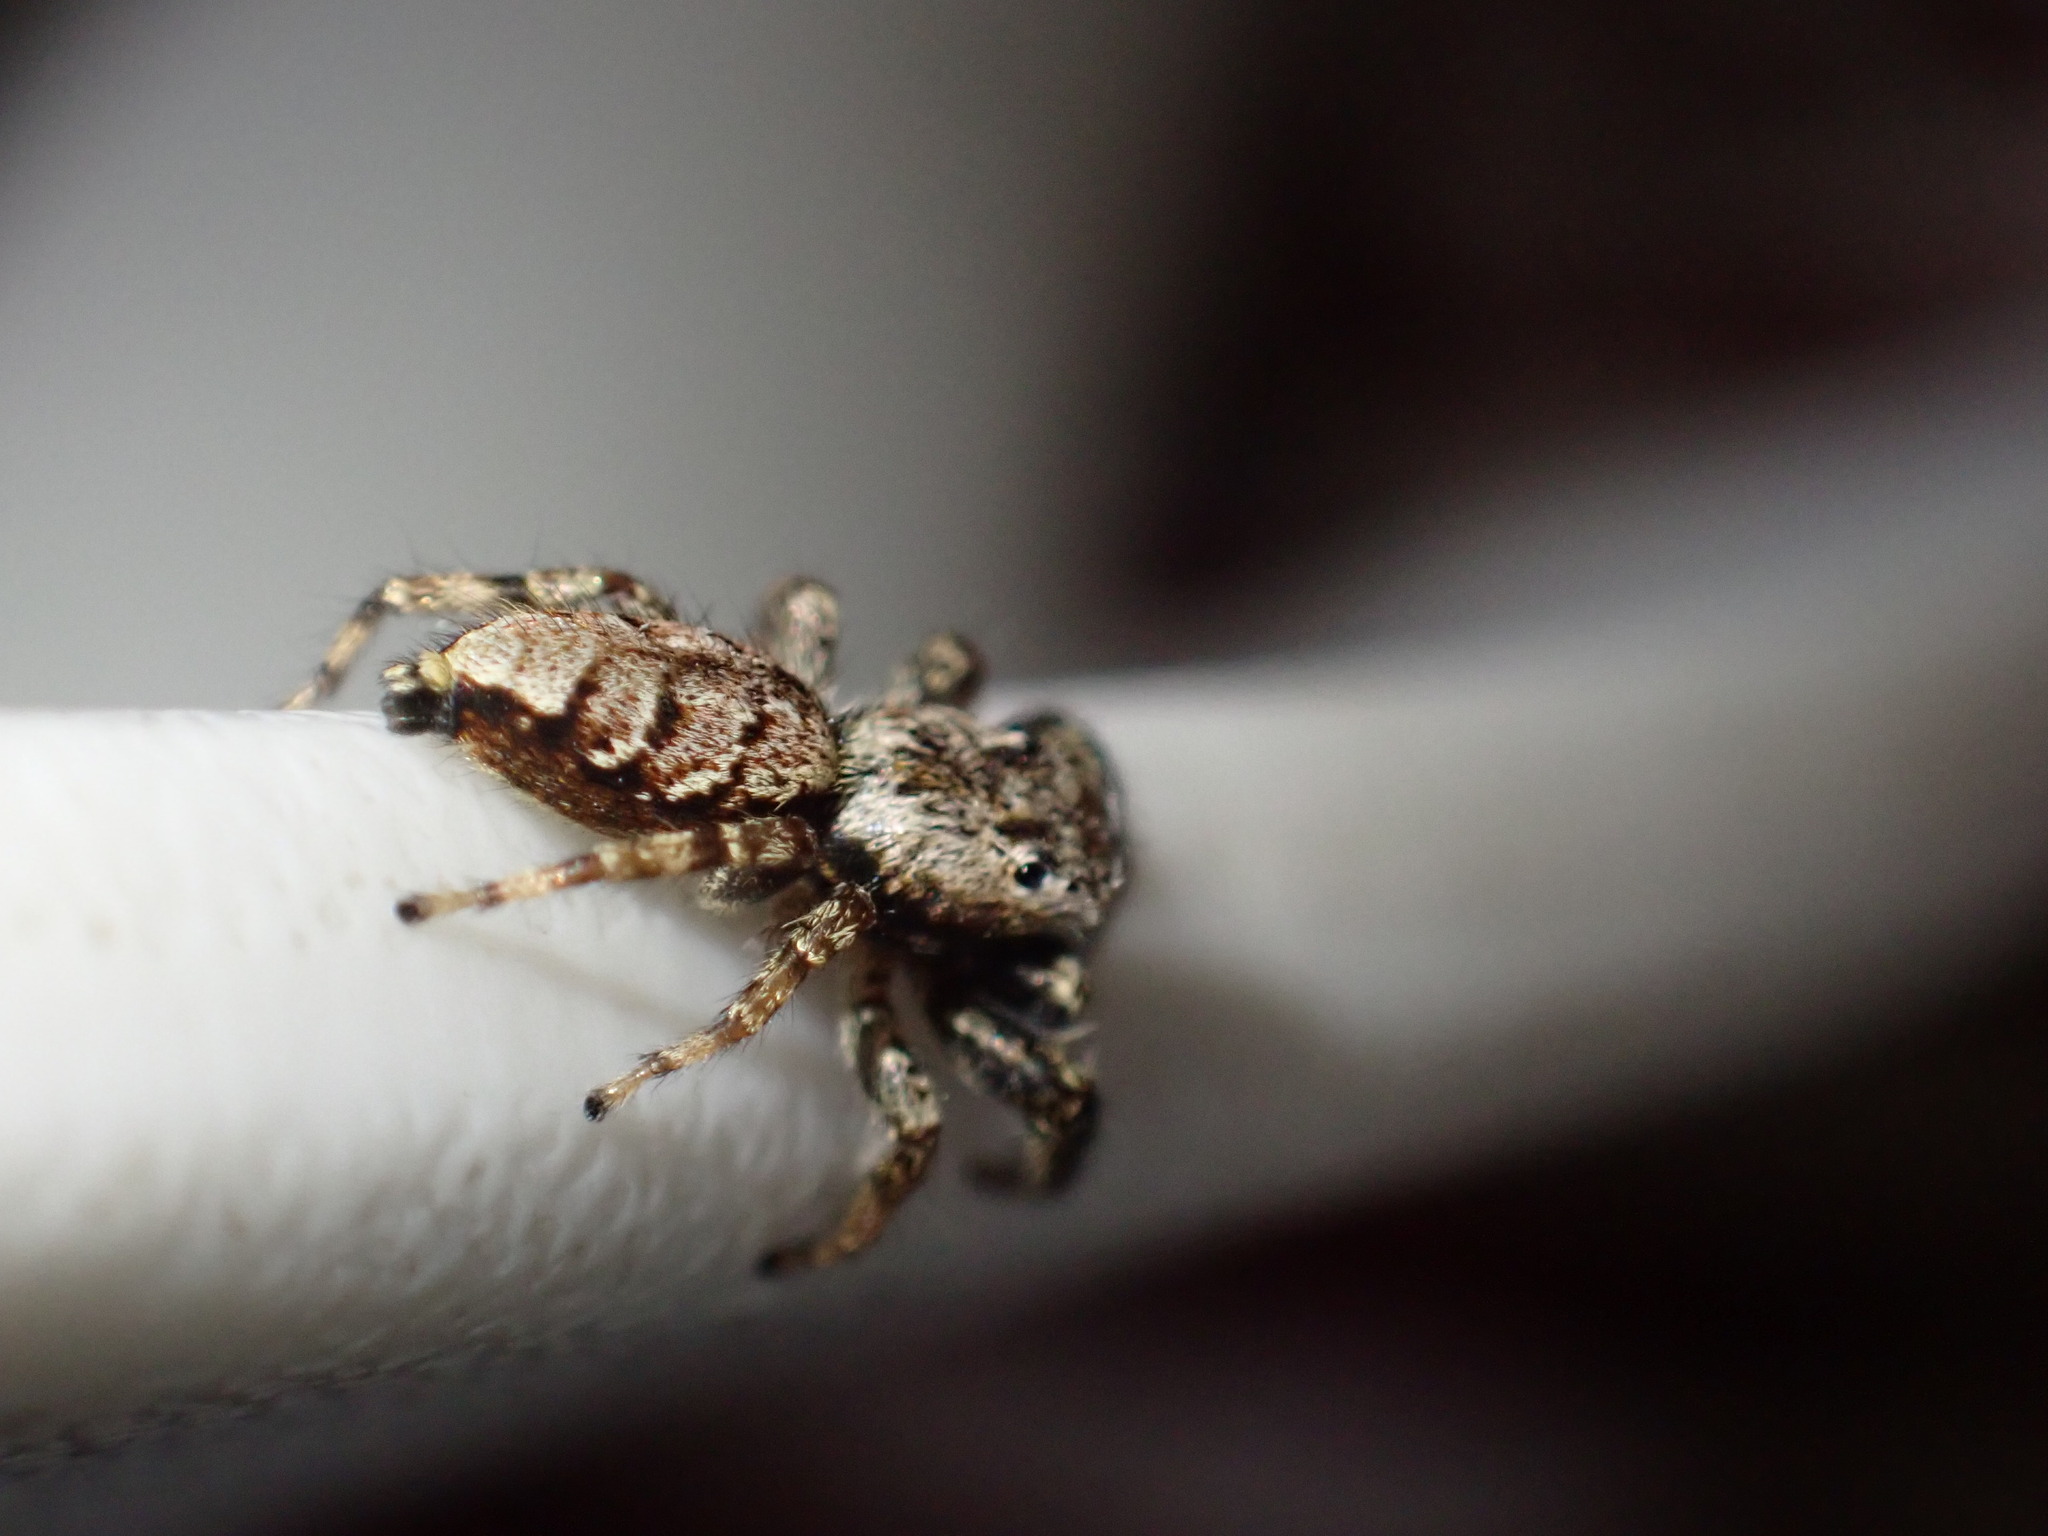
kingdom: Animalia
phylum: Arthropoda
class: Arachnida
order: Araneae
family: Salticidae
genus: Marpissa
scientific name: Marpissa muscosa
